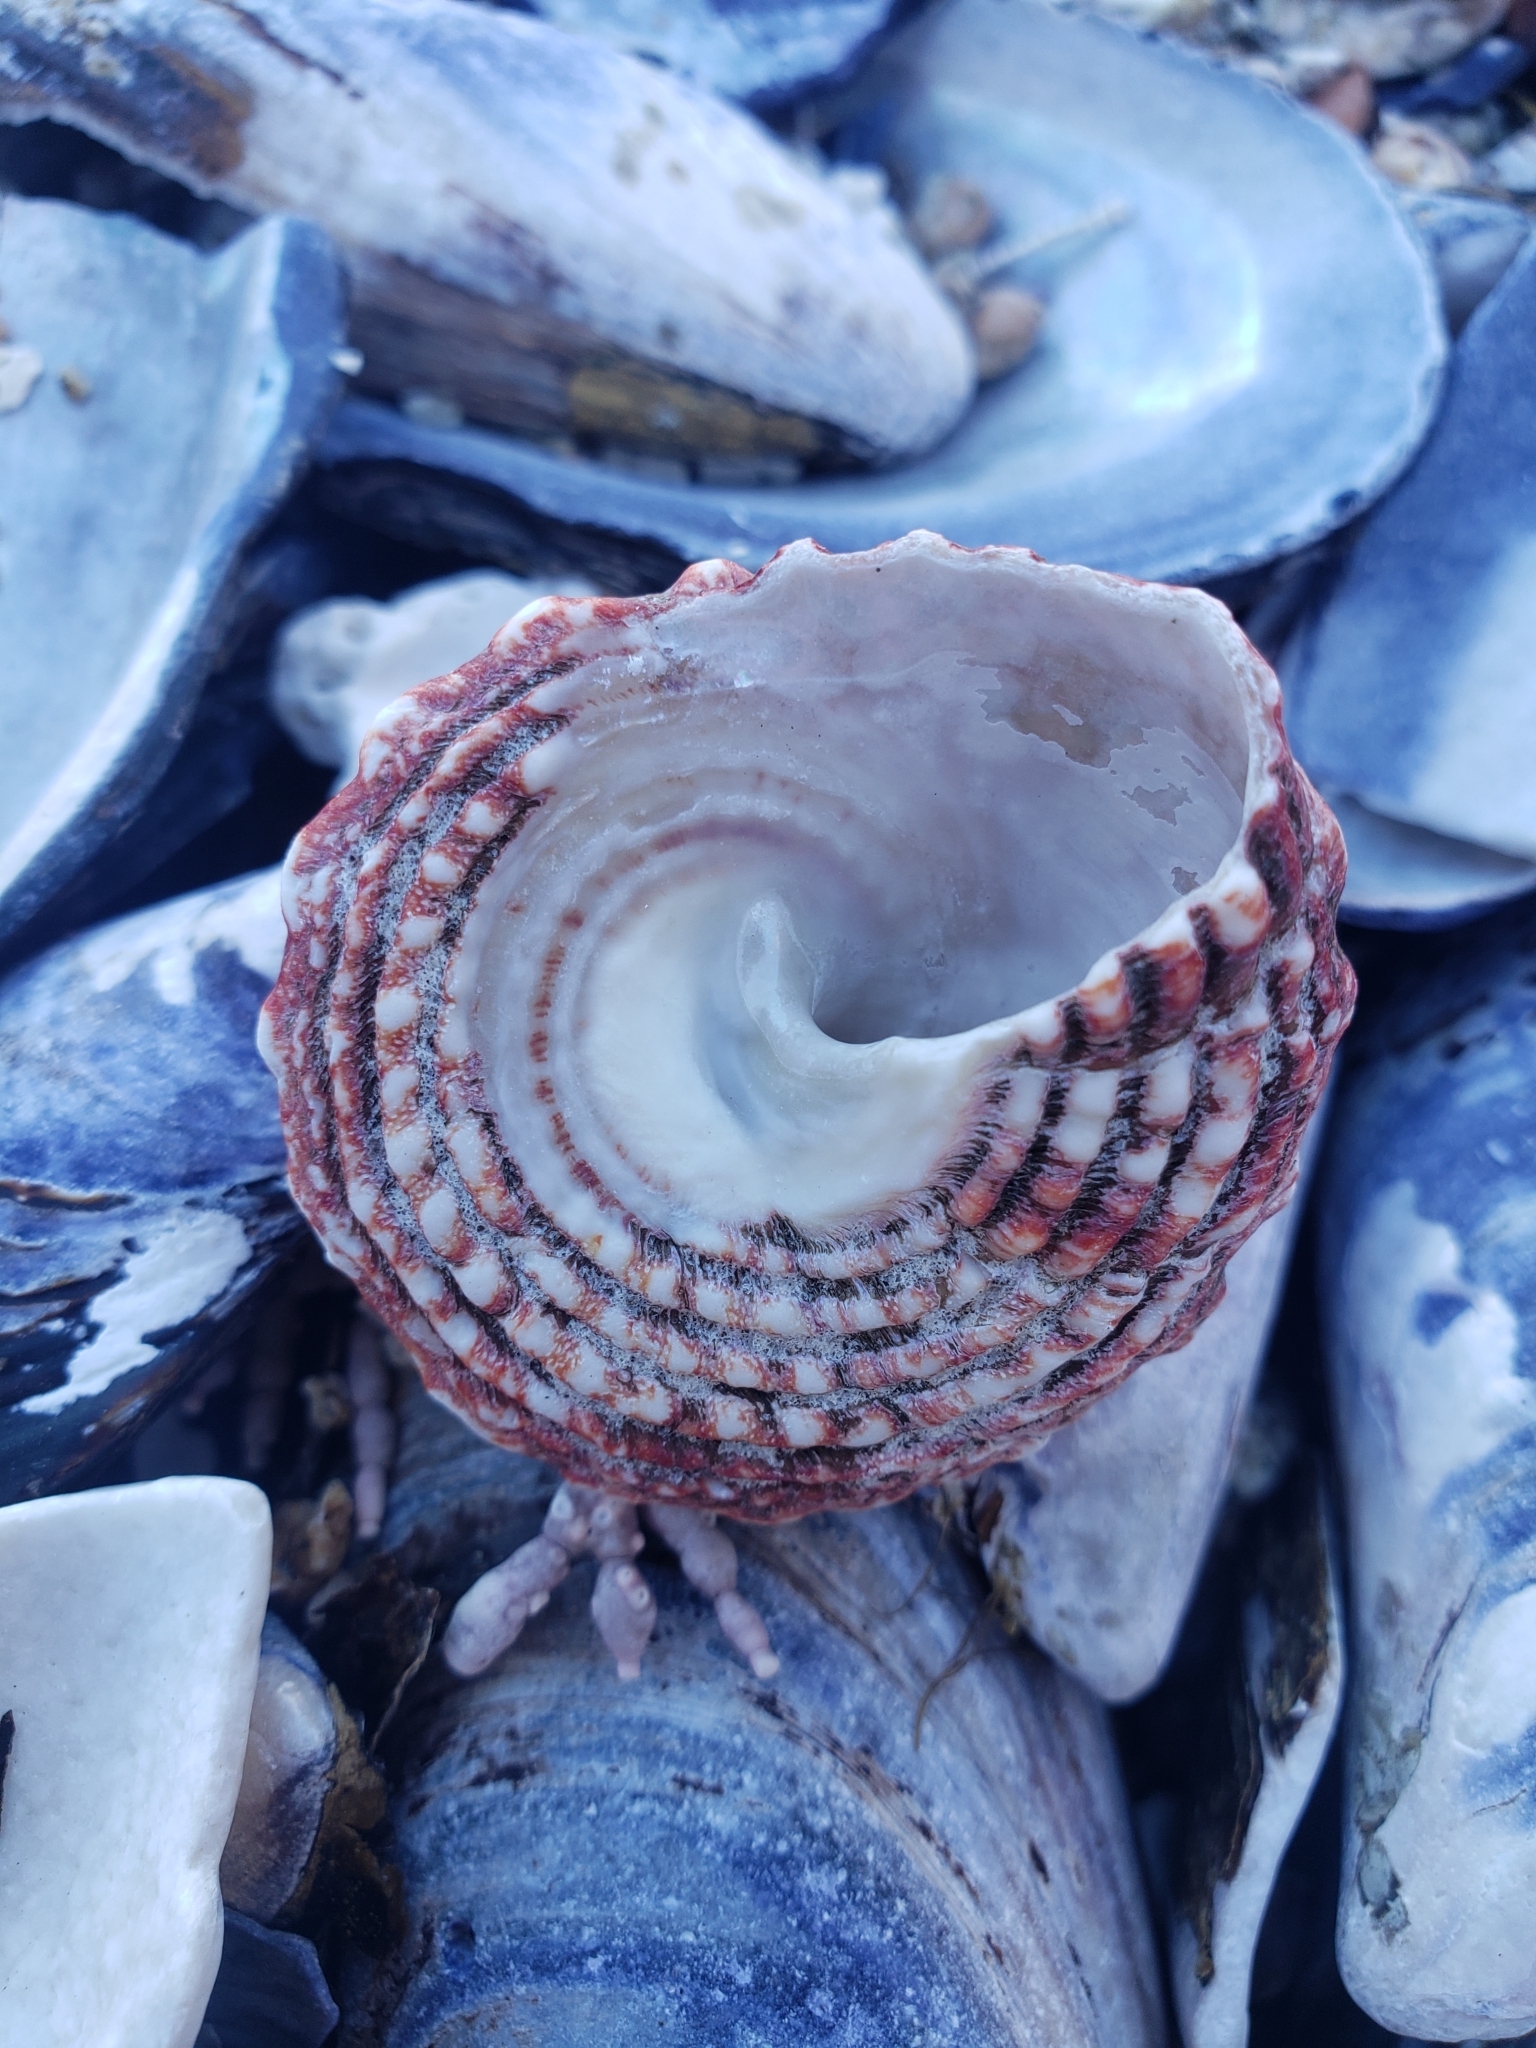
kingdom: Animalia
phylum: Mollusca
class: Gastropoda
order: Trochida
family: Turbinidae
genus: Pomaulax
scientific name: Pomaulax gibberosus
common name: Red turban
